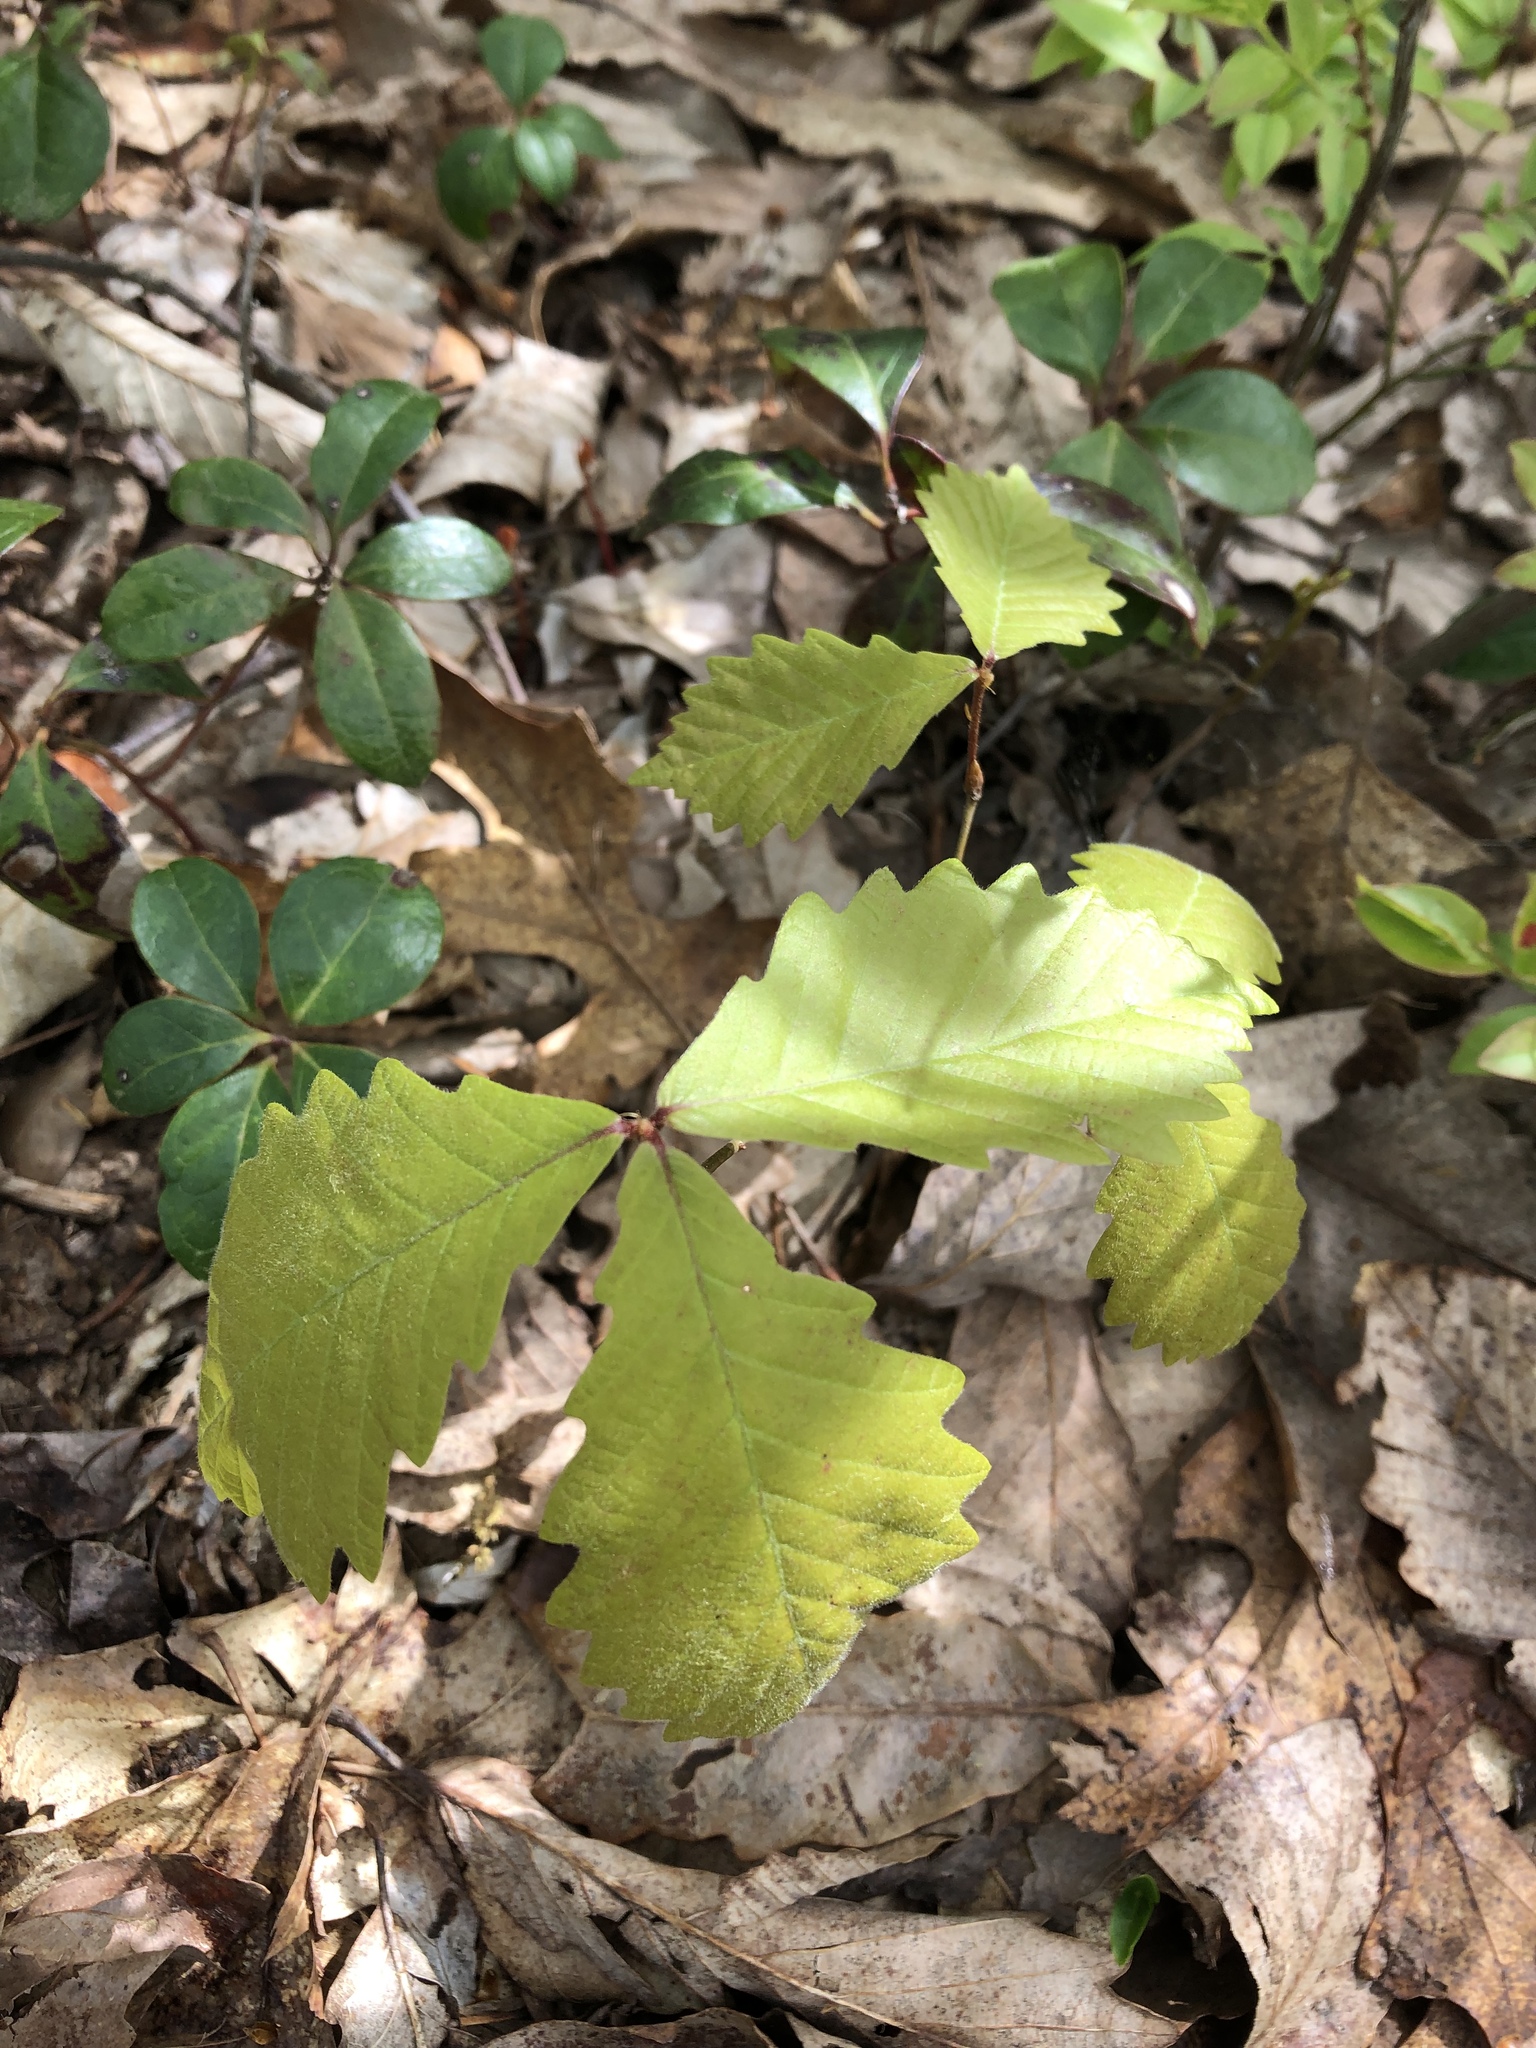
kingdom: Plantae
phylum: Tracheophyta
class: Magnoliopsida
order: Fagales
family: Fagaceae
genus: Quercus
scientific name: Quercus montana
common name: Chestnut oak
